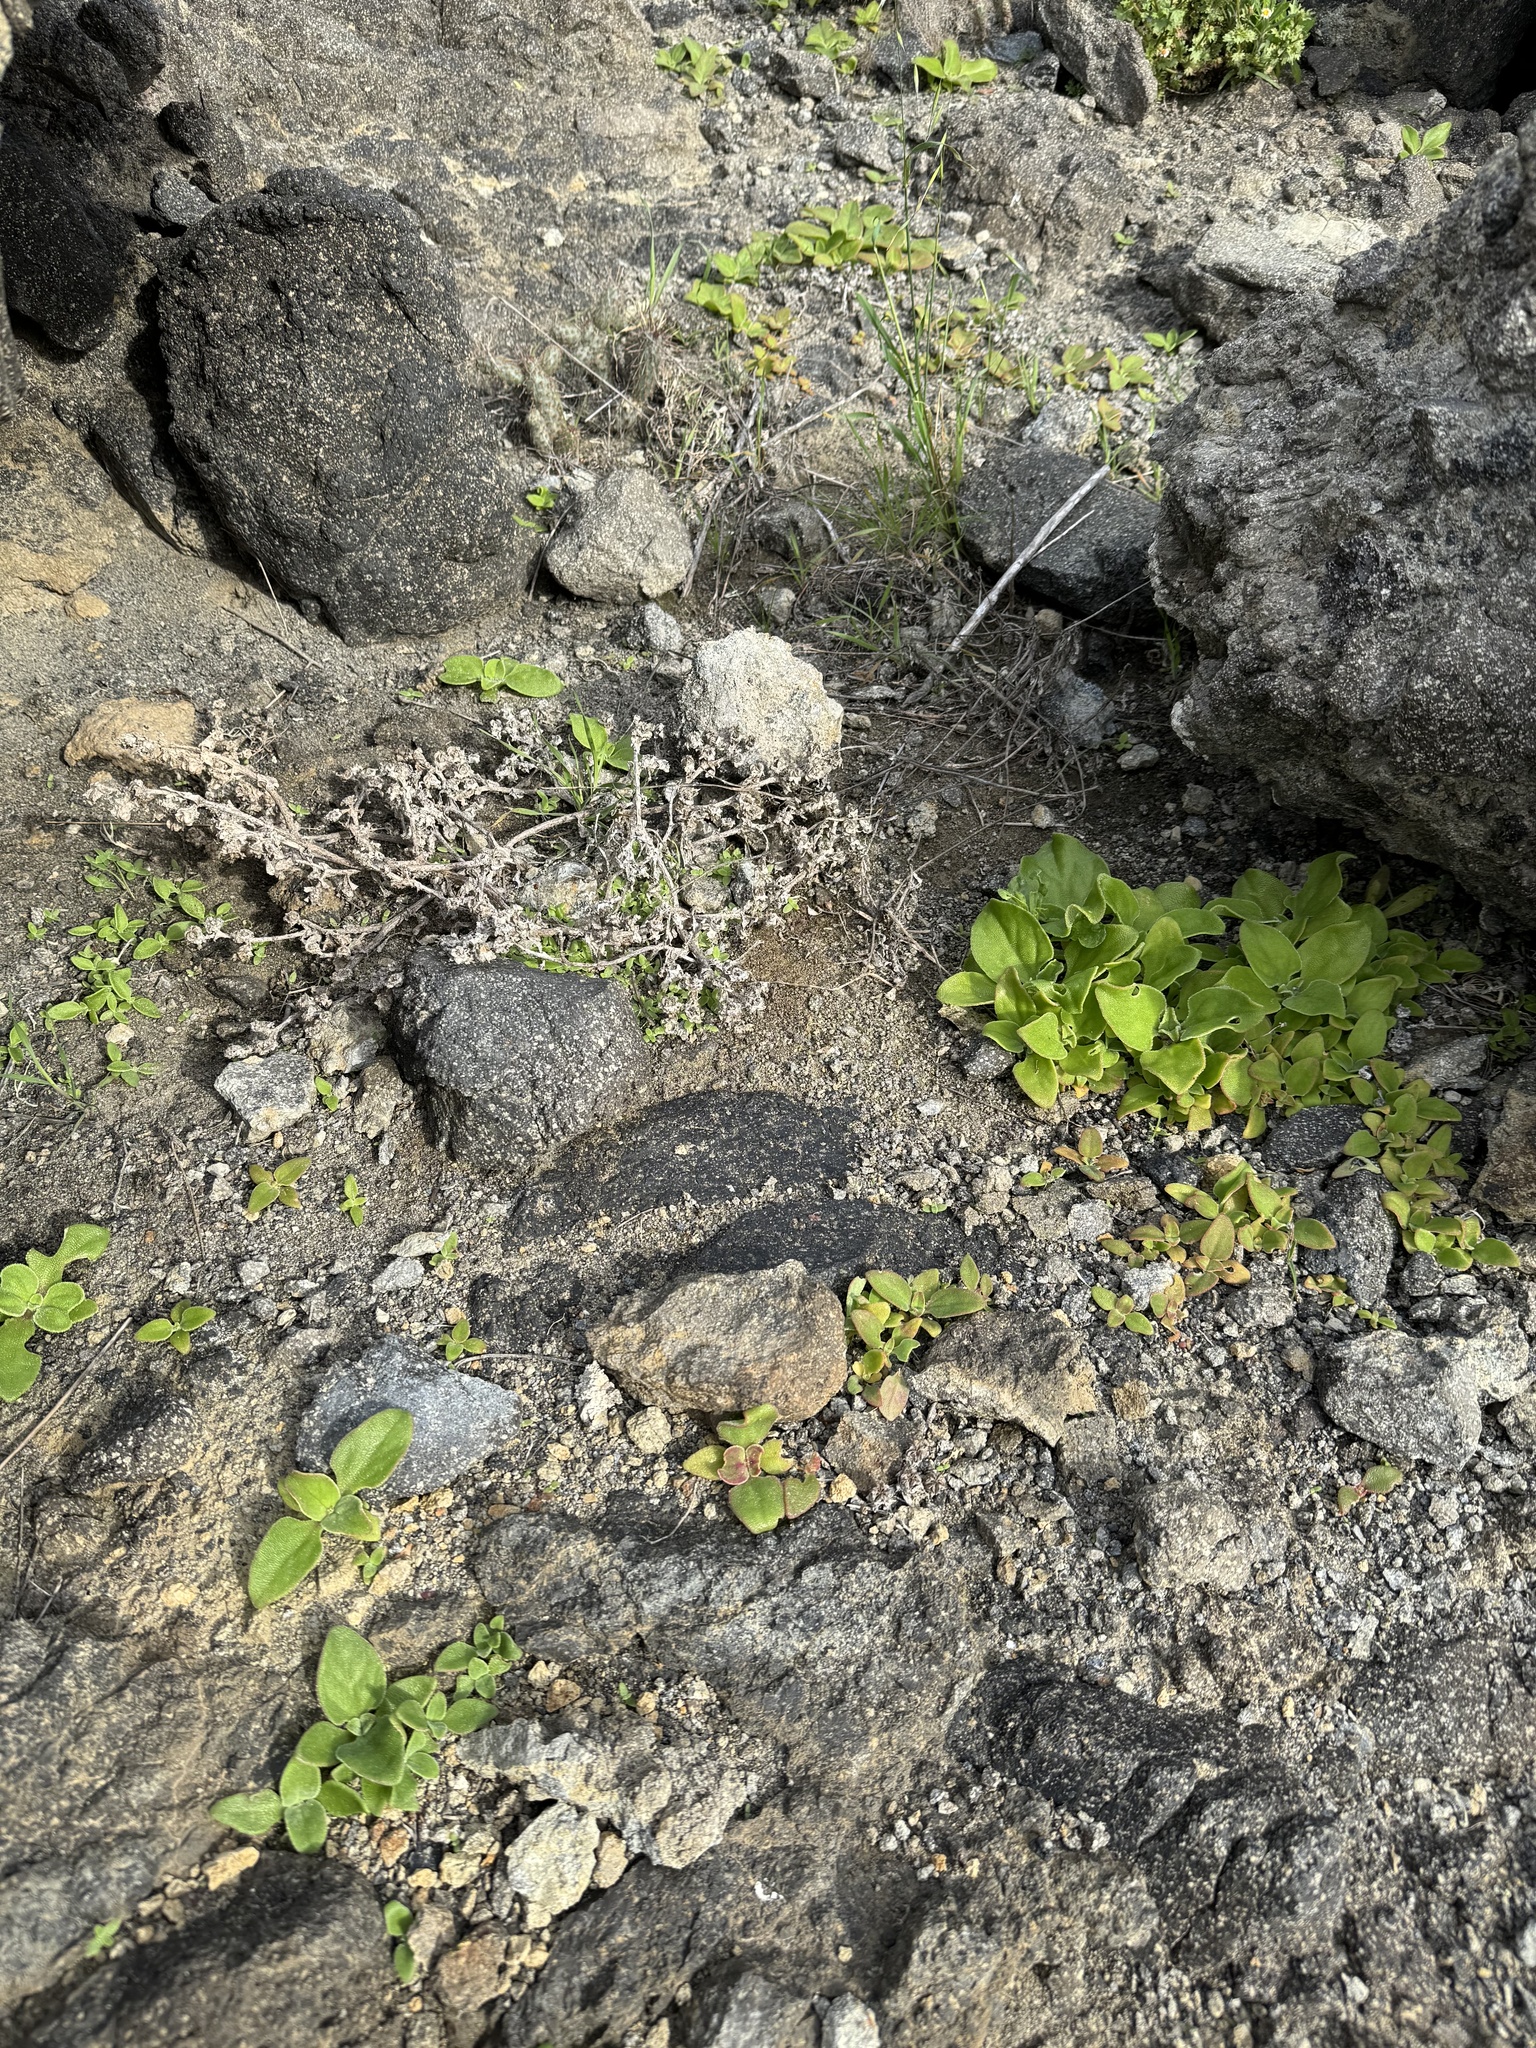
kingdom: Plantae
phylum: Tracheophyta
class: Magnoliopsida
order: Caryophyllales
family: Aizoaceae
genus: Mesembryanthemum
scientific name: Mesembryanthemum crystallinum
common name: Common iceplant
